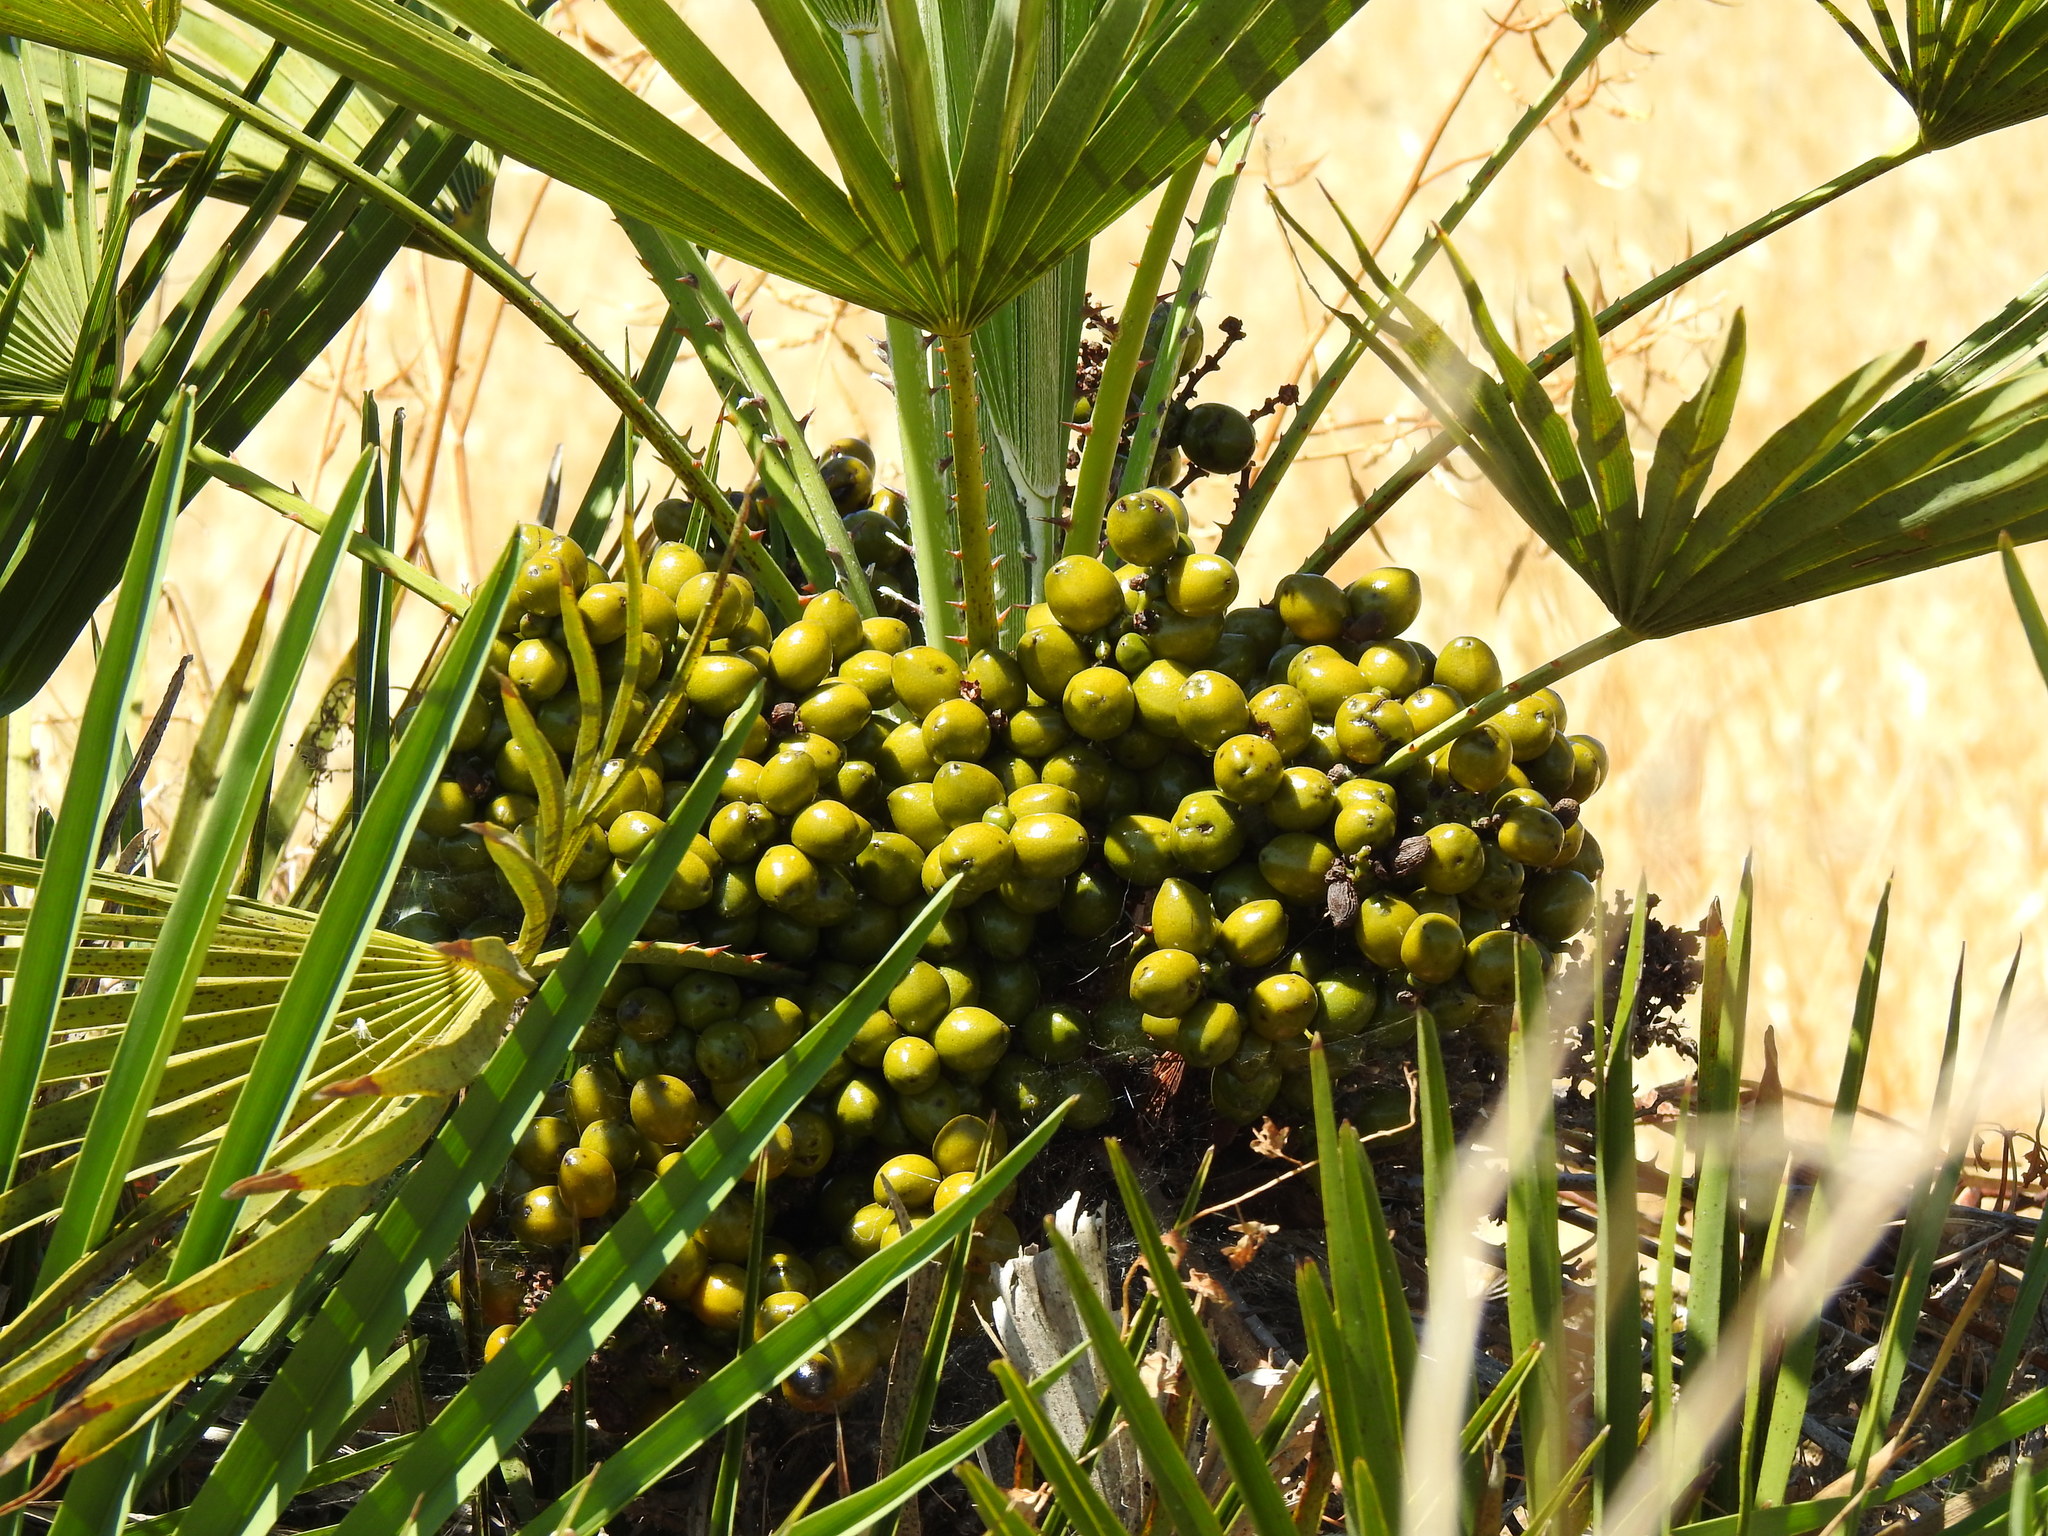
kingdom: Plantae
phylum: Tracheophyta
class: Liliopsida
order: Arecales
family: Arecaceae
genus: Chamaerops
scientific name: Chamaerops humilis
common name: Dwarf fan palm
